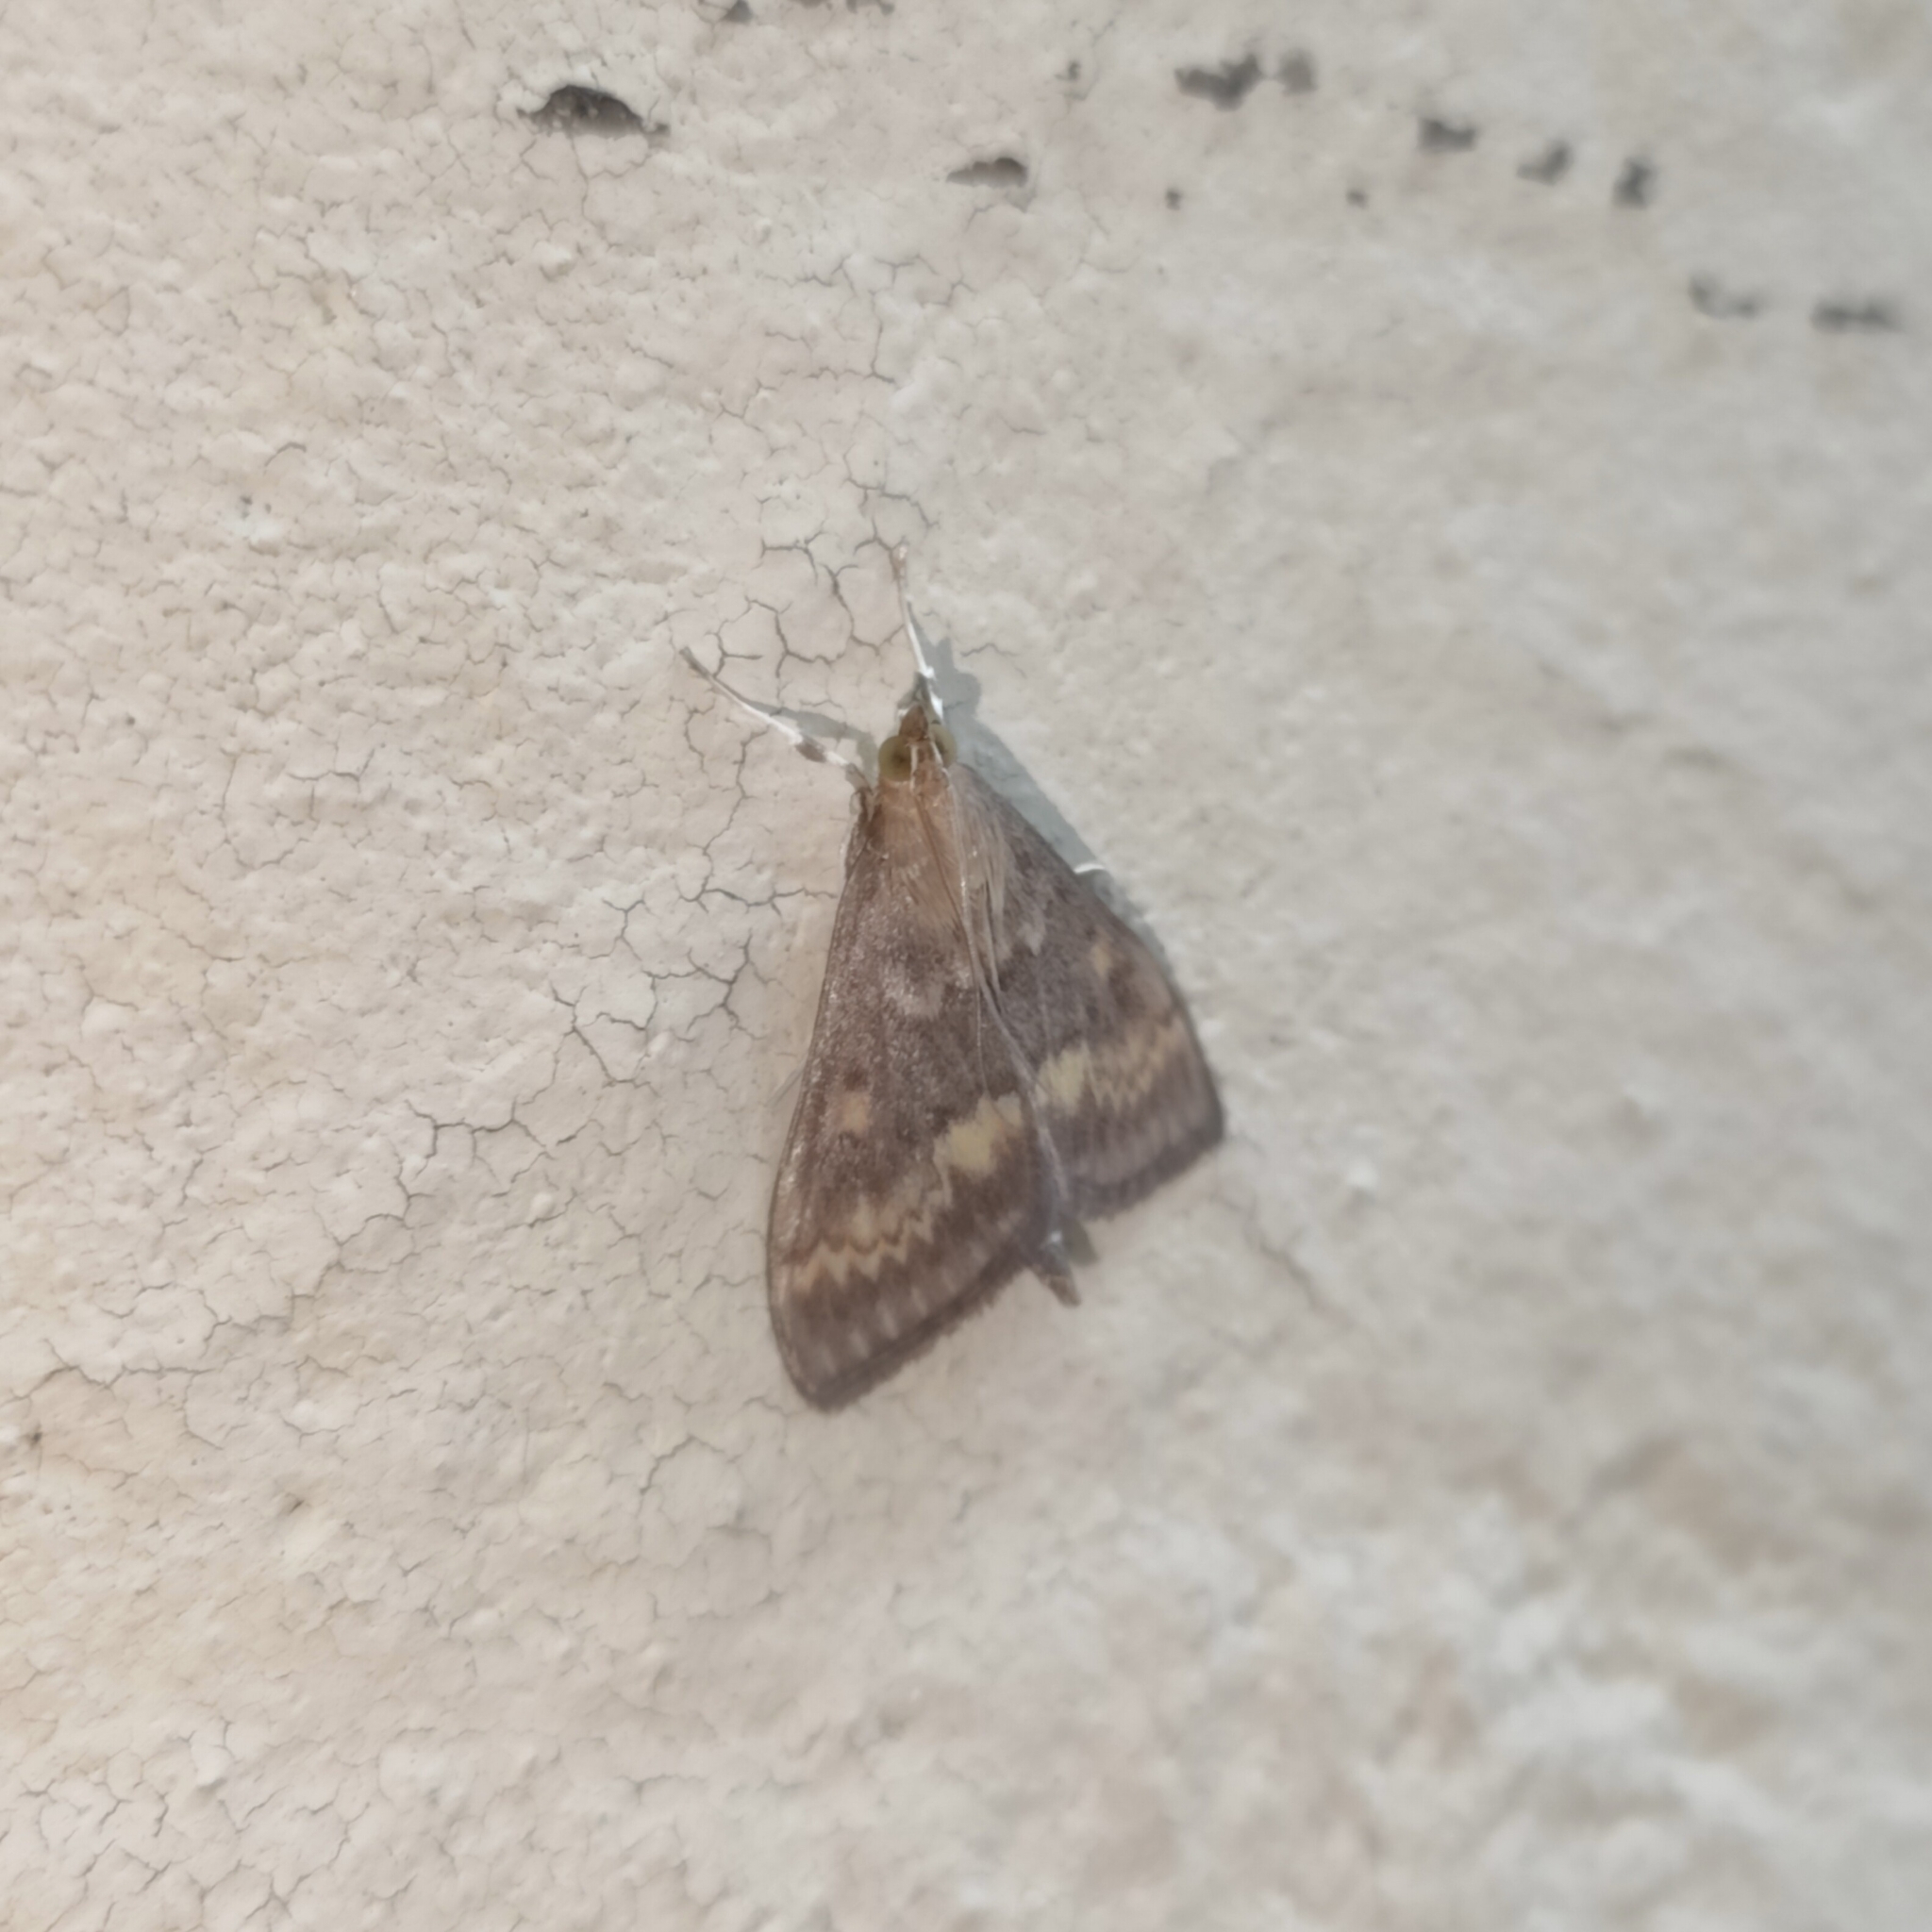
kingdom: Animalia
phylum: Arthropoda
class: Insecta
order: Lepidoptera
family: Crambidae
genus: Ostrinia
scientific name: Ostrinia nubilalis
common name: European corn borer
